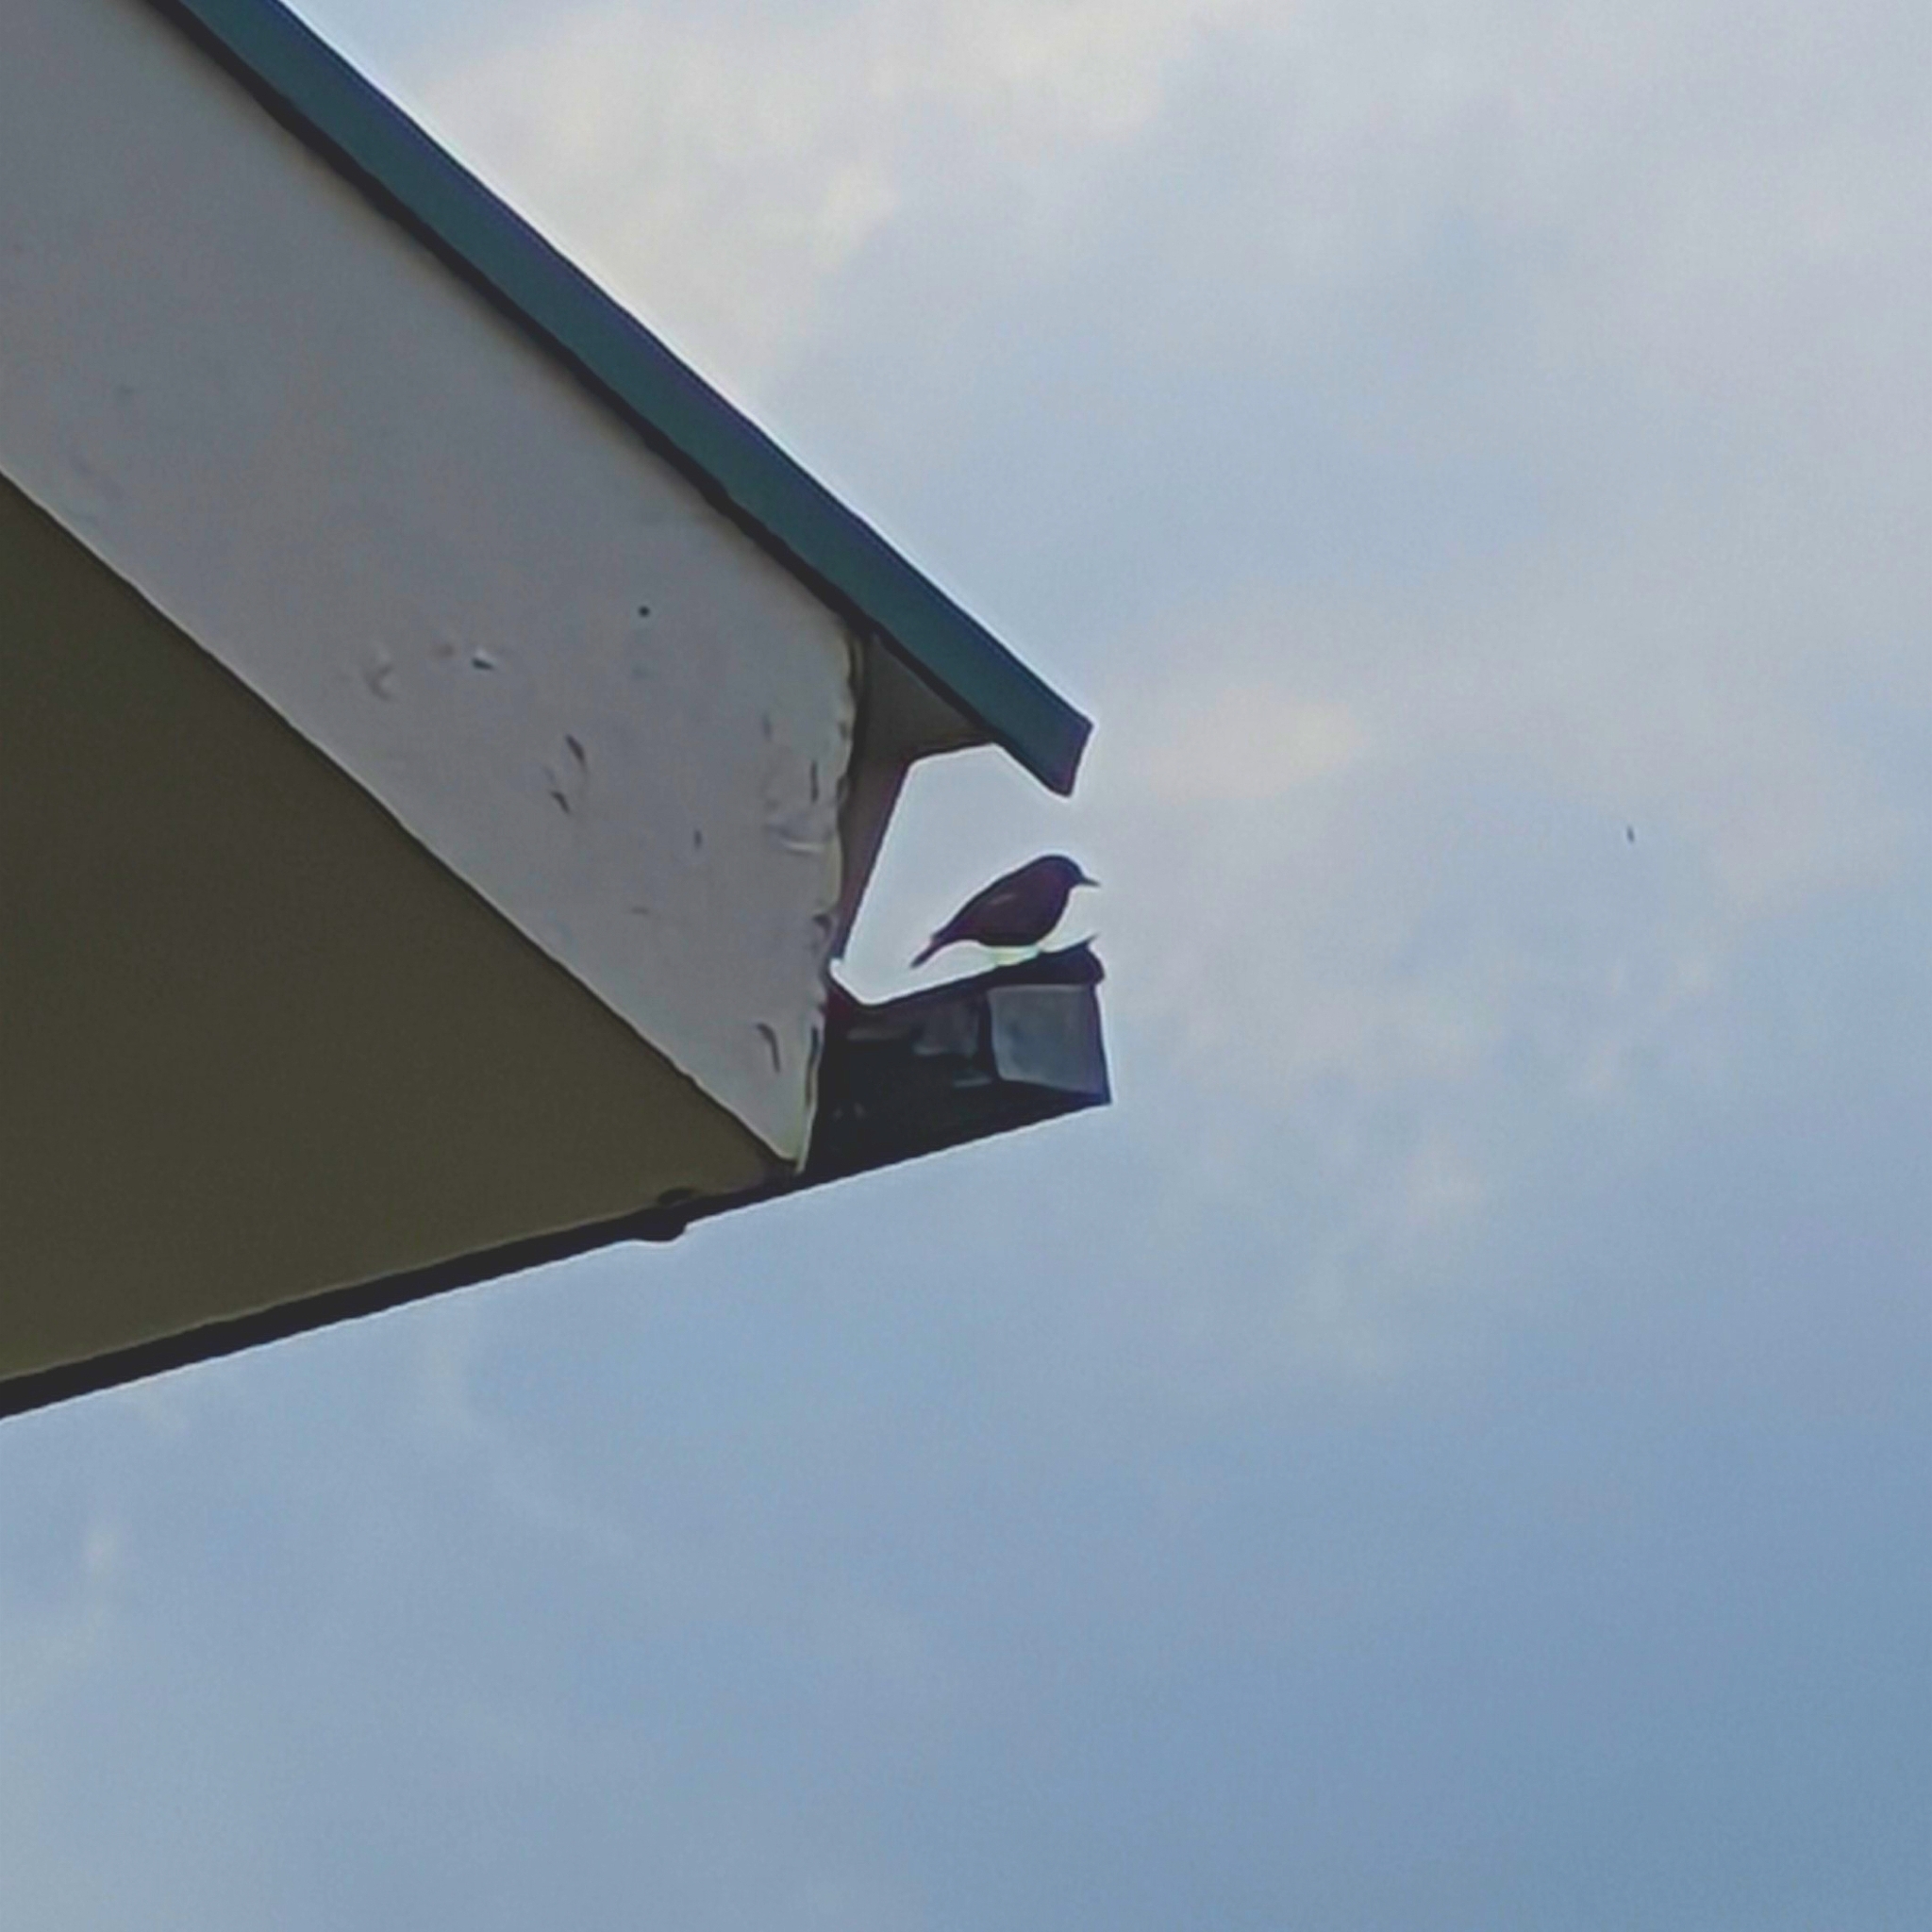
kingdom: Animalia
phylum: Chordata
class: Aves
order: Passeriformes
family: Muscicapidae
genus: Phoenicurus
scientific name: Phoenicurus ochruros
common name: Black redstart
